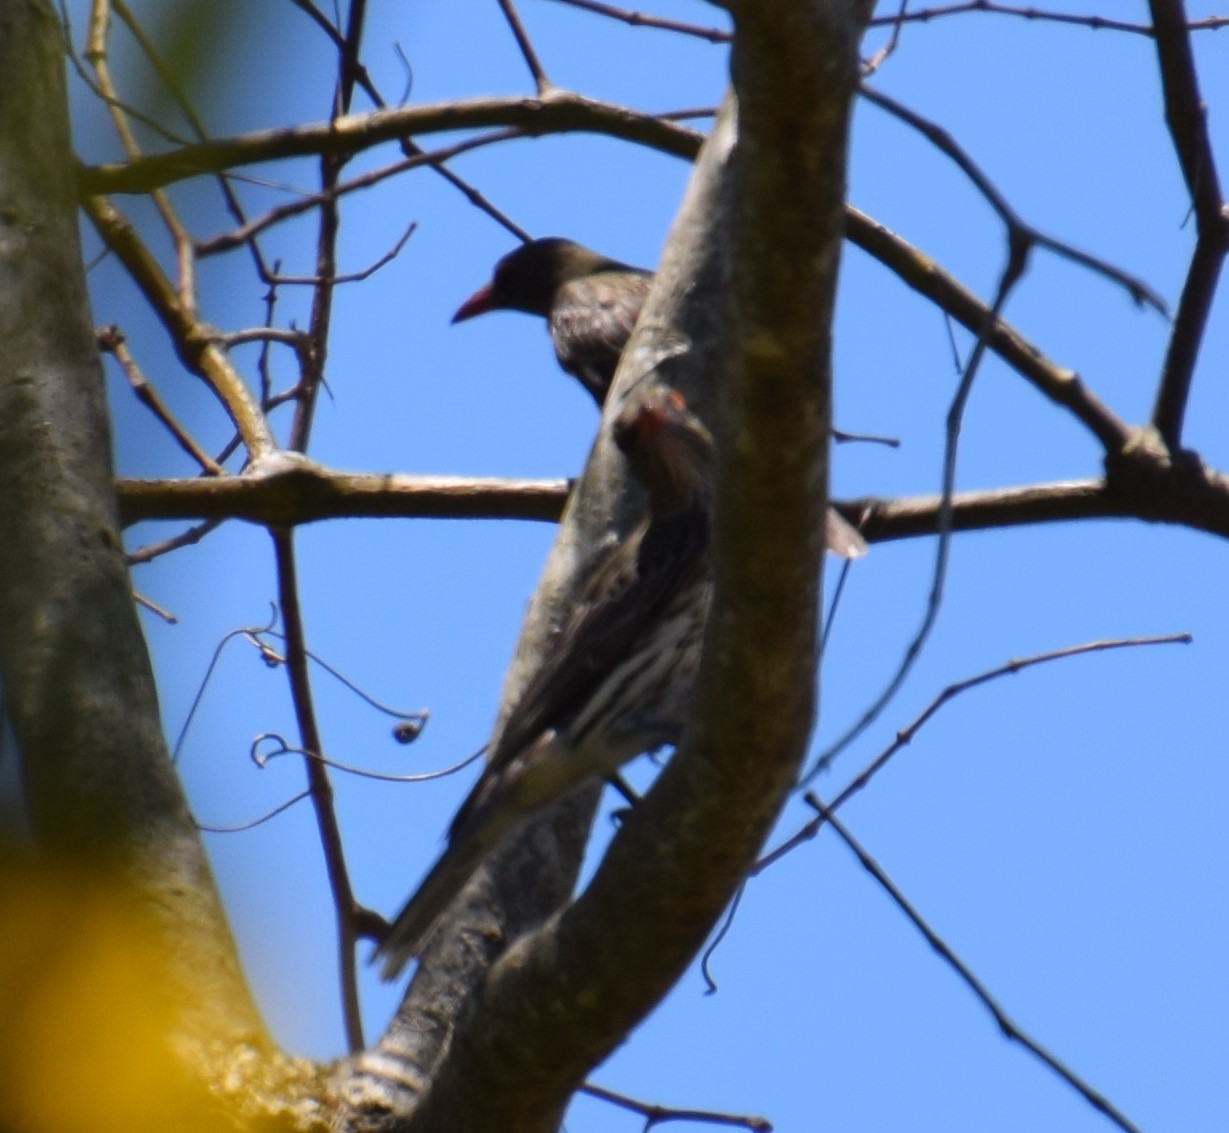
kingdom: Animalia
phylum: Chordata
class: Aves
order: Passeriformes
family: Oriolidae
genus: Oriolus
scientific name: Oriolus sagittatus
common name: Olive-backed oriole
